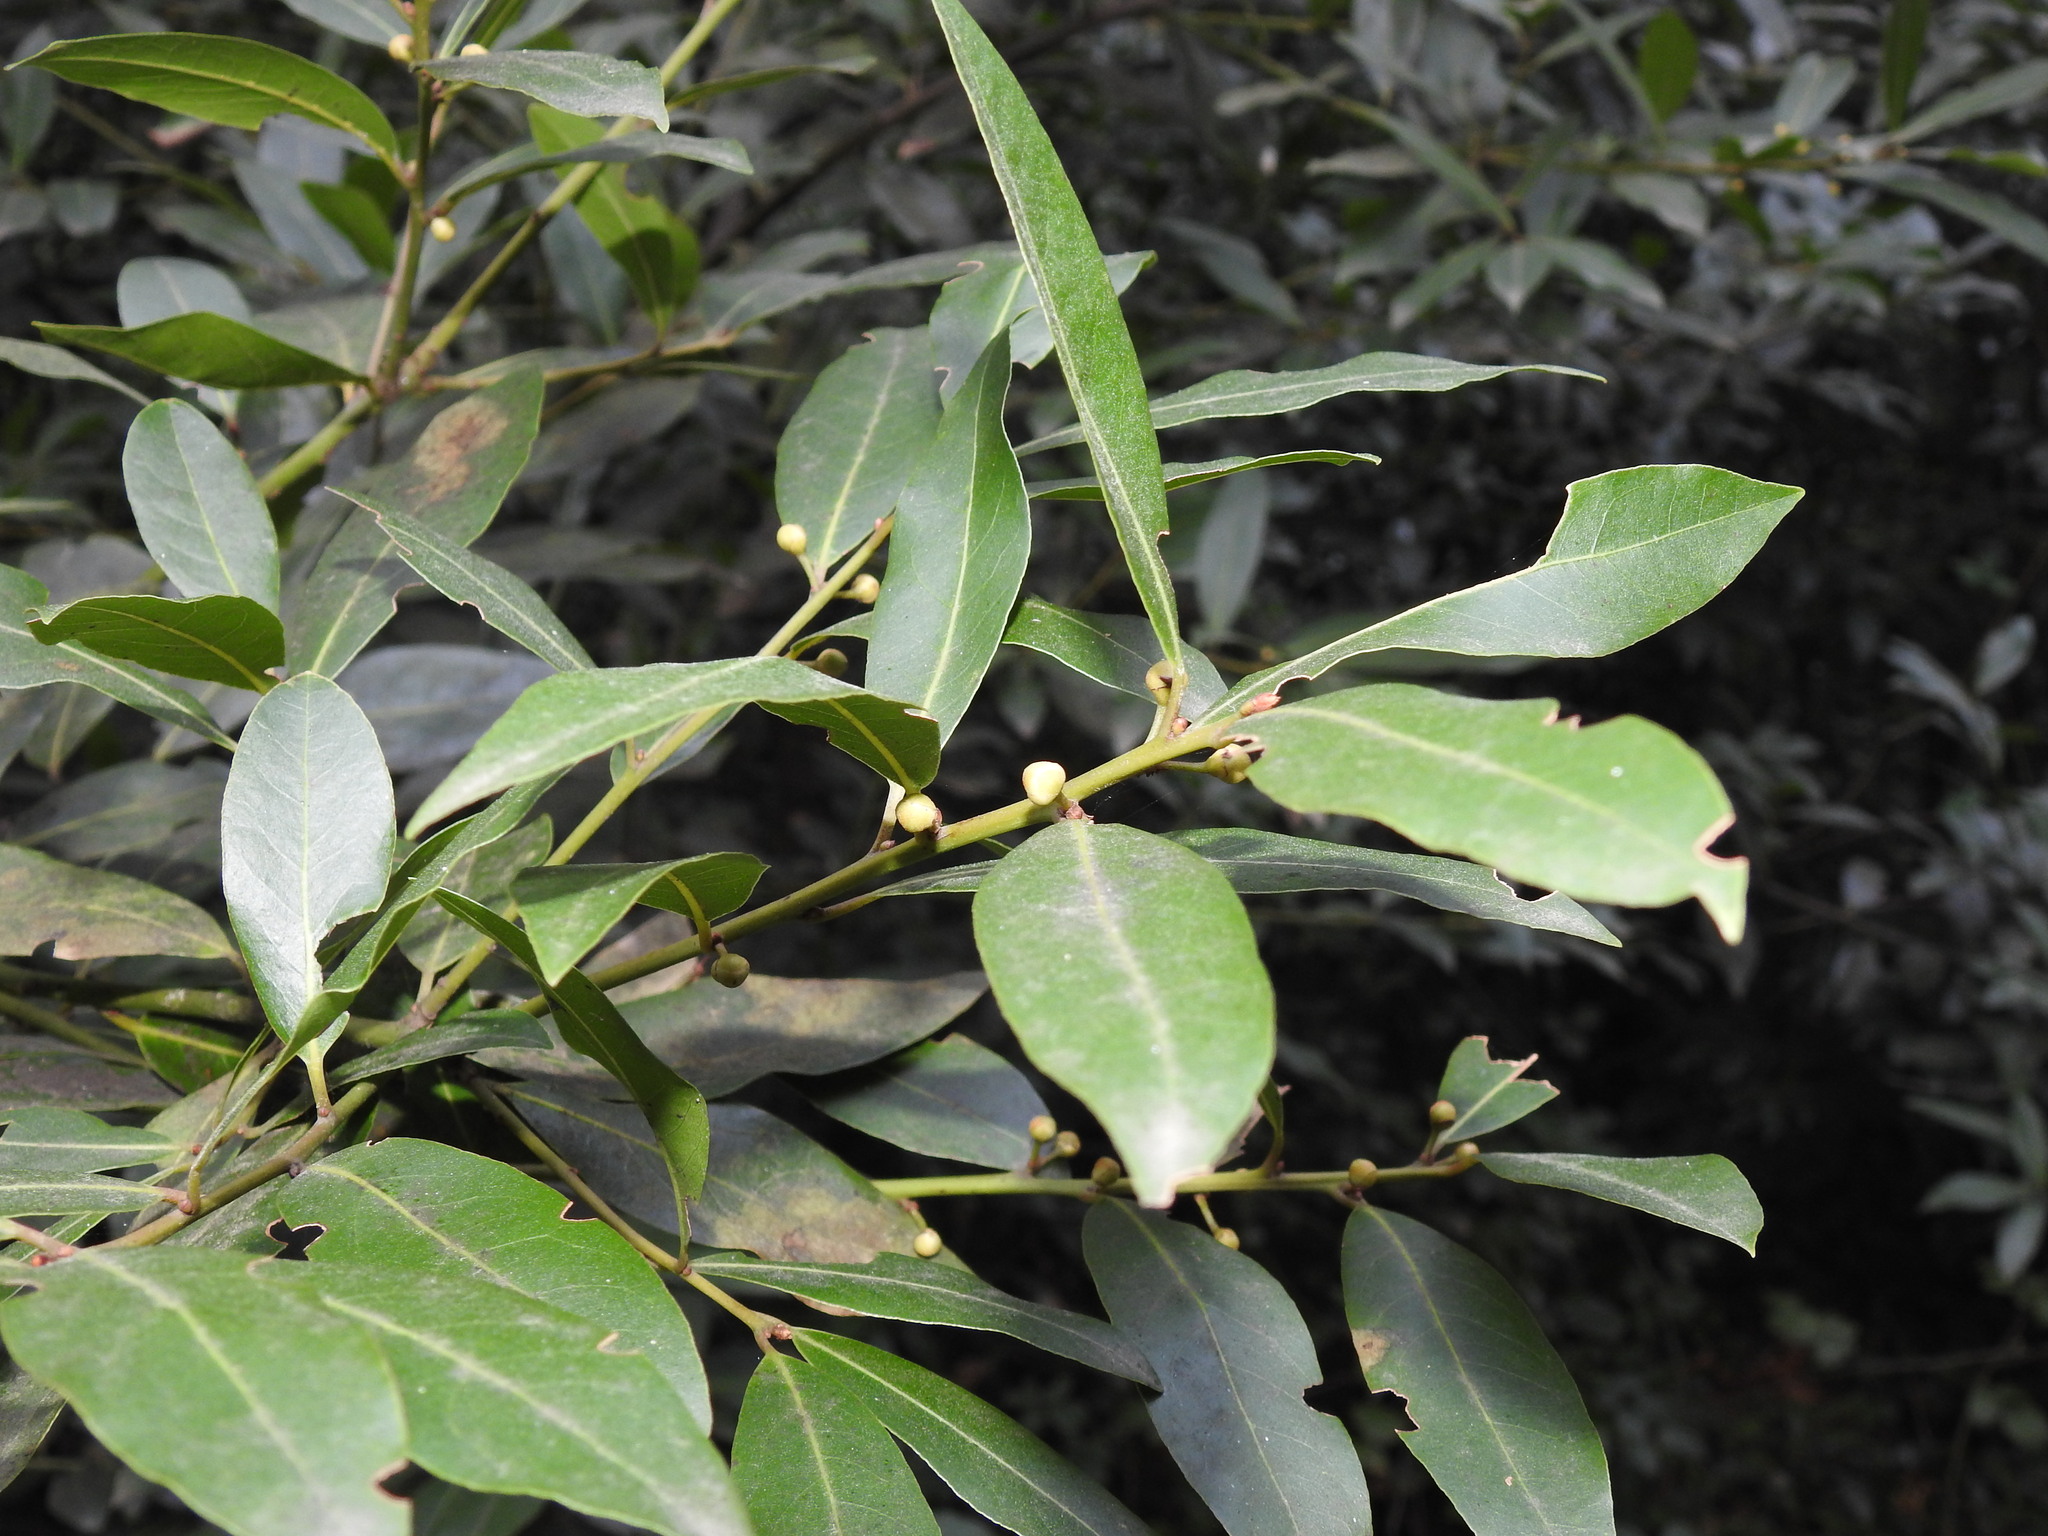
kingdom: Plantae
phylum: Tracheophyta
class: Magnoliopsida
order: Laurales
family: Lauraceae
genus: Laurus
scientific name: Laurus nobilis
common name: Bay
